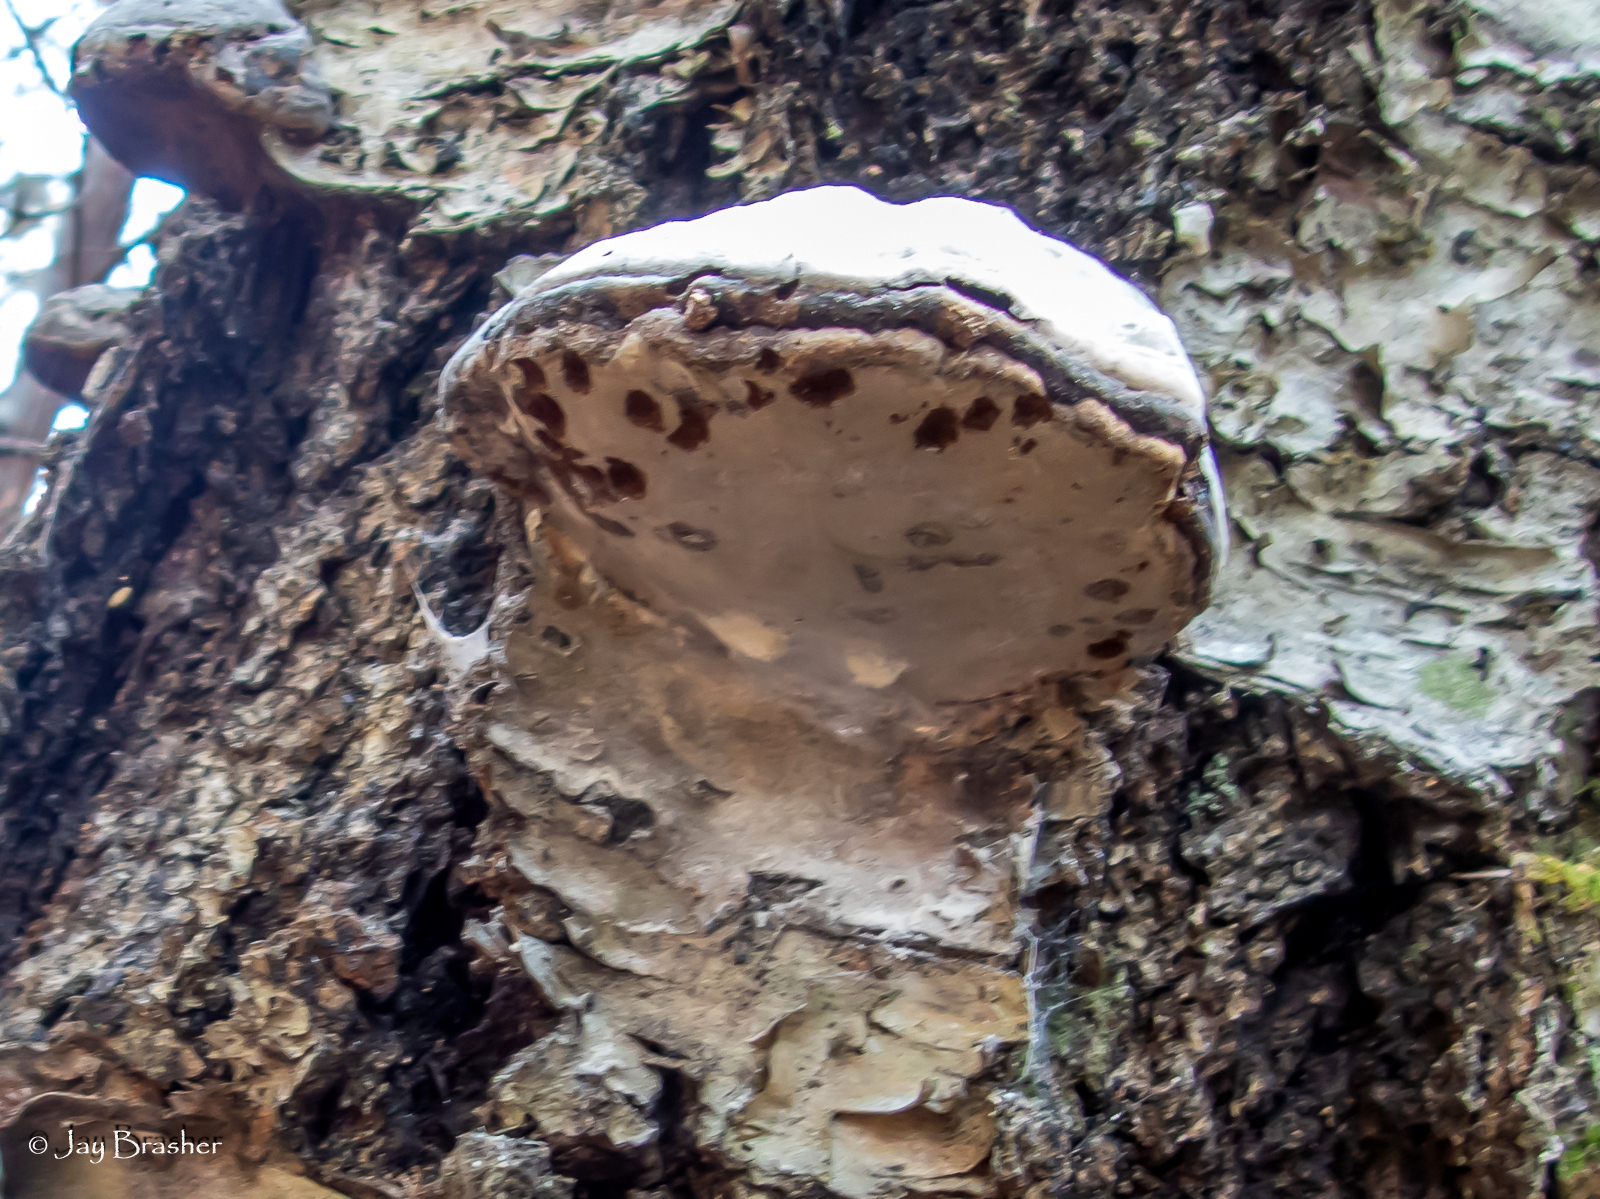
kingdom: Fungi
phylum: Basidiomycota
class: Agaricomycetes
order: Polyporales
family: Polyporaceae
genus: Fomes
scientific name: Fomes fomentarius
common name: Hoof fungus
